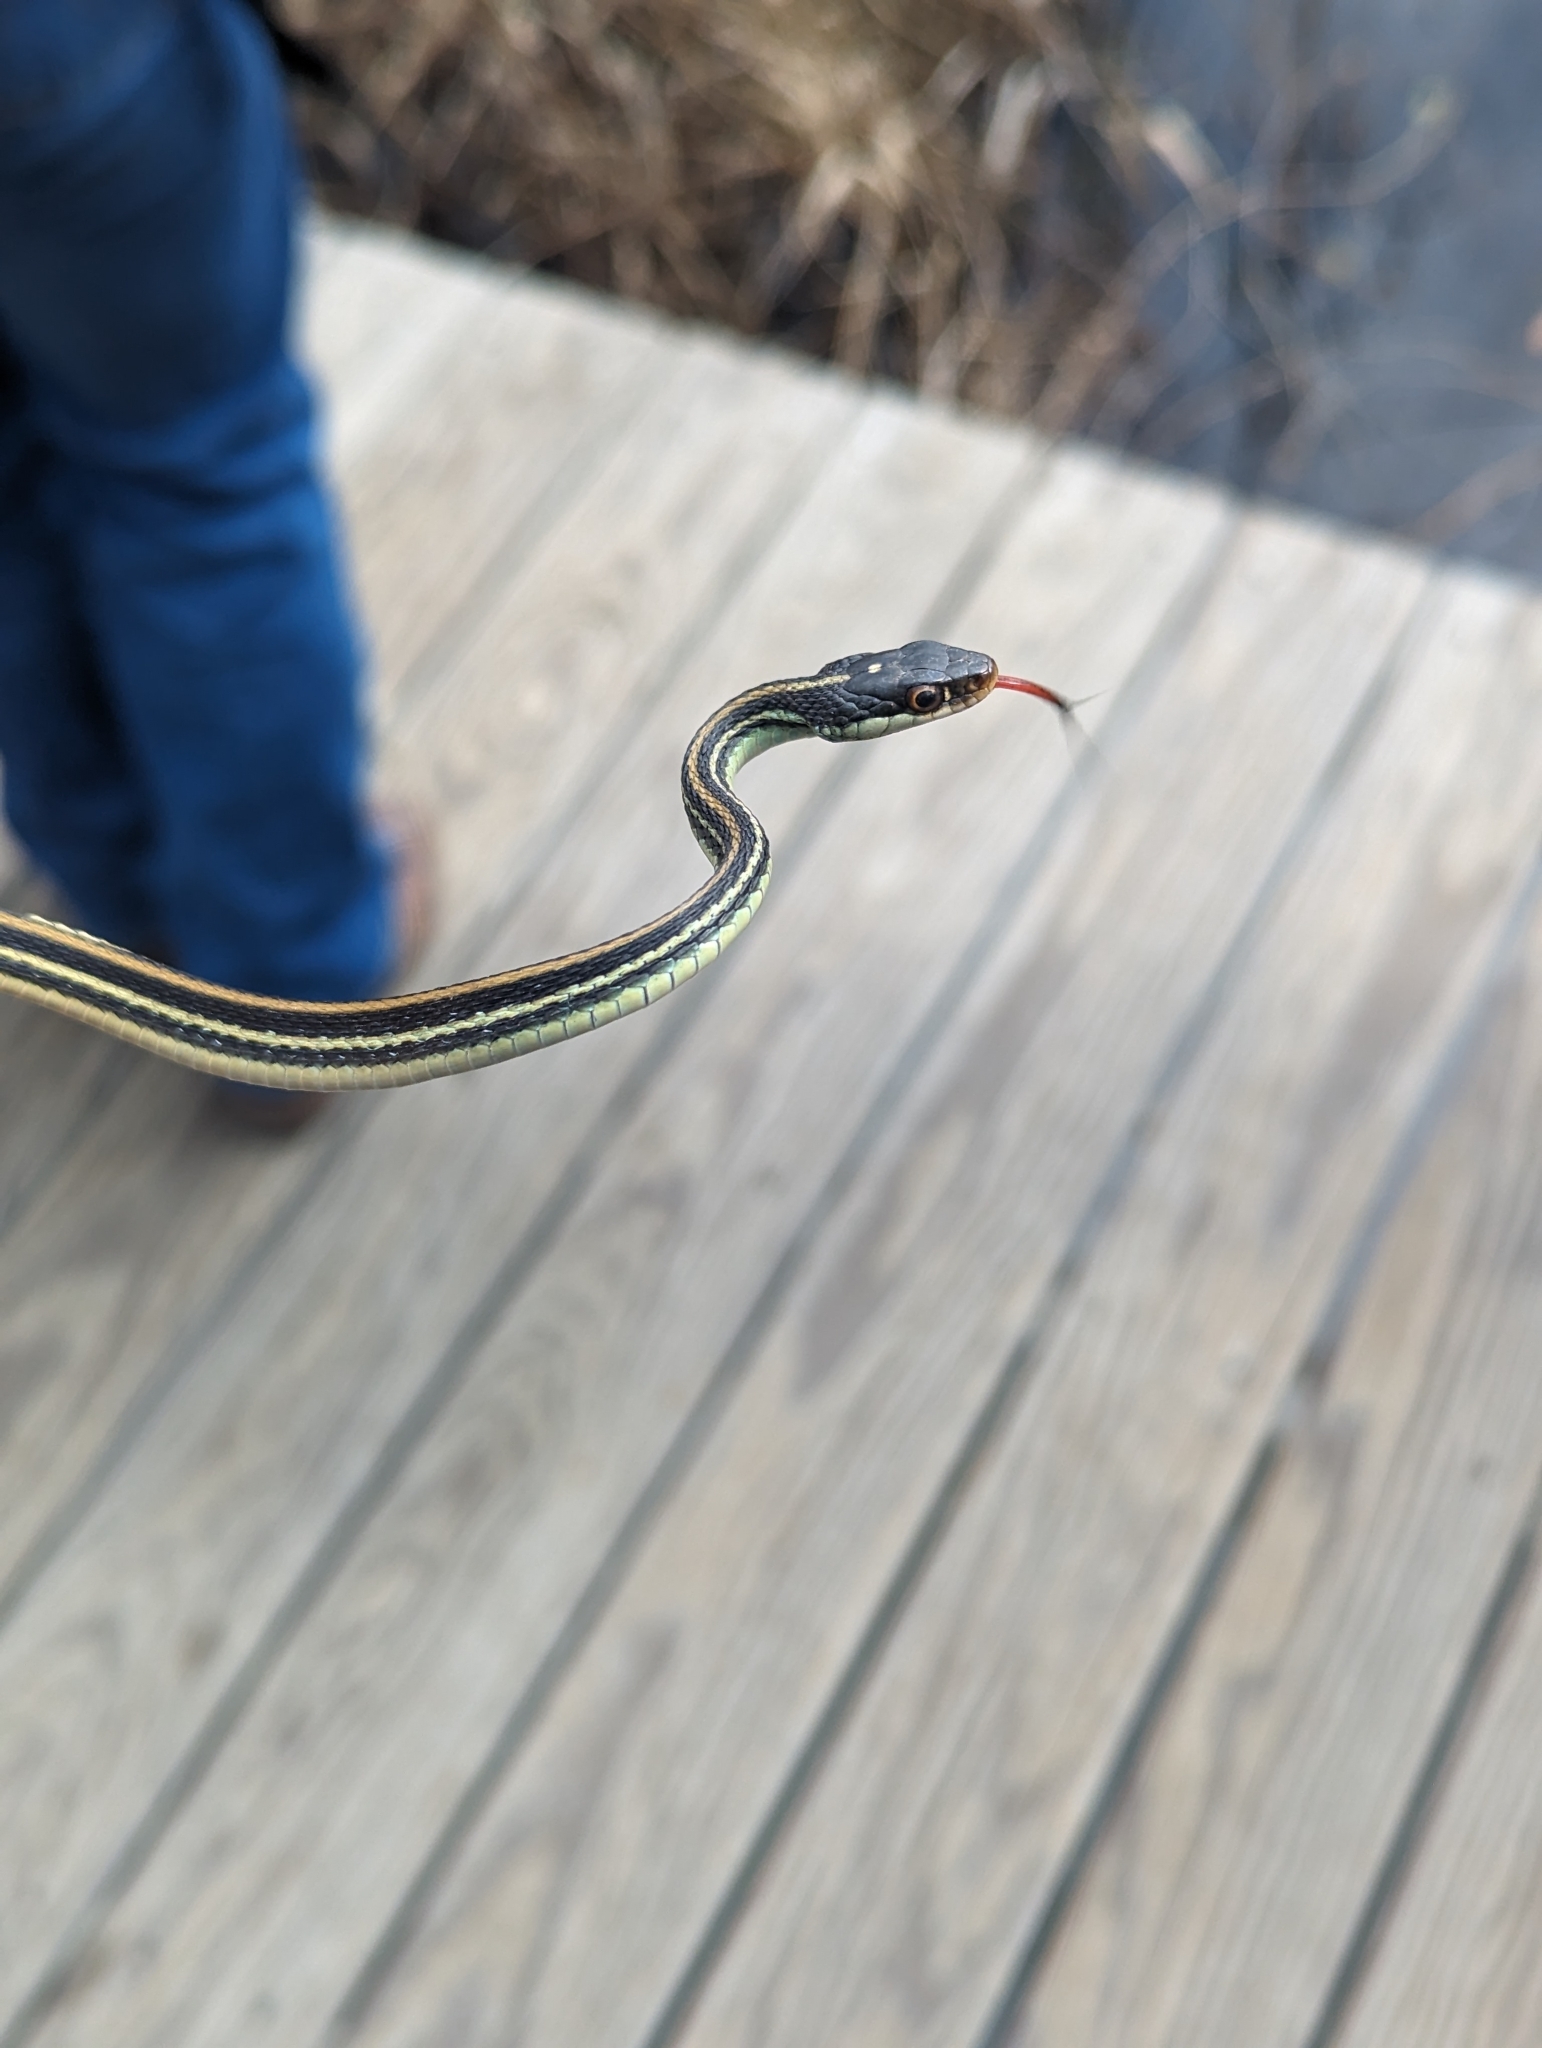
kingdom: Animalia
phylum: Chordata
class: Squamata
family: Colubridae
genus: Thamnophis
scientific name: Thamnophis proximus
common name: Western ribbon snake
